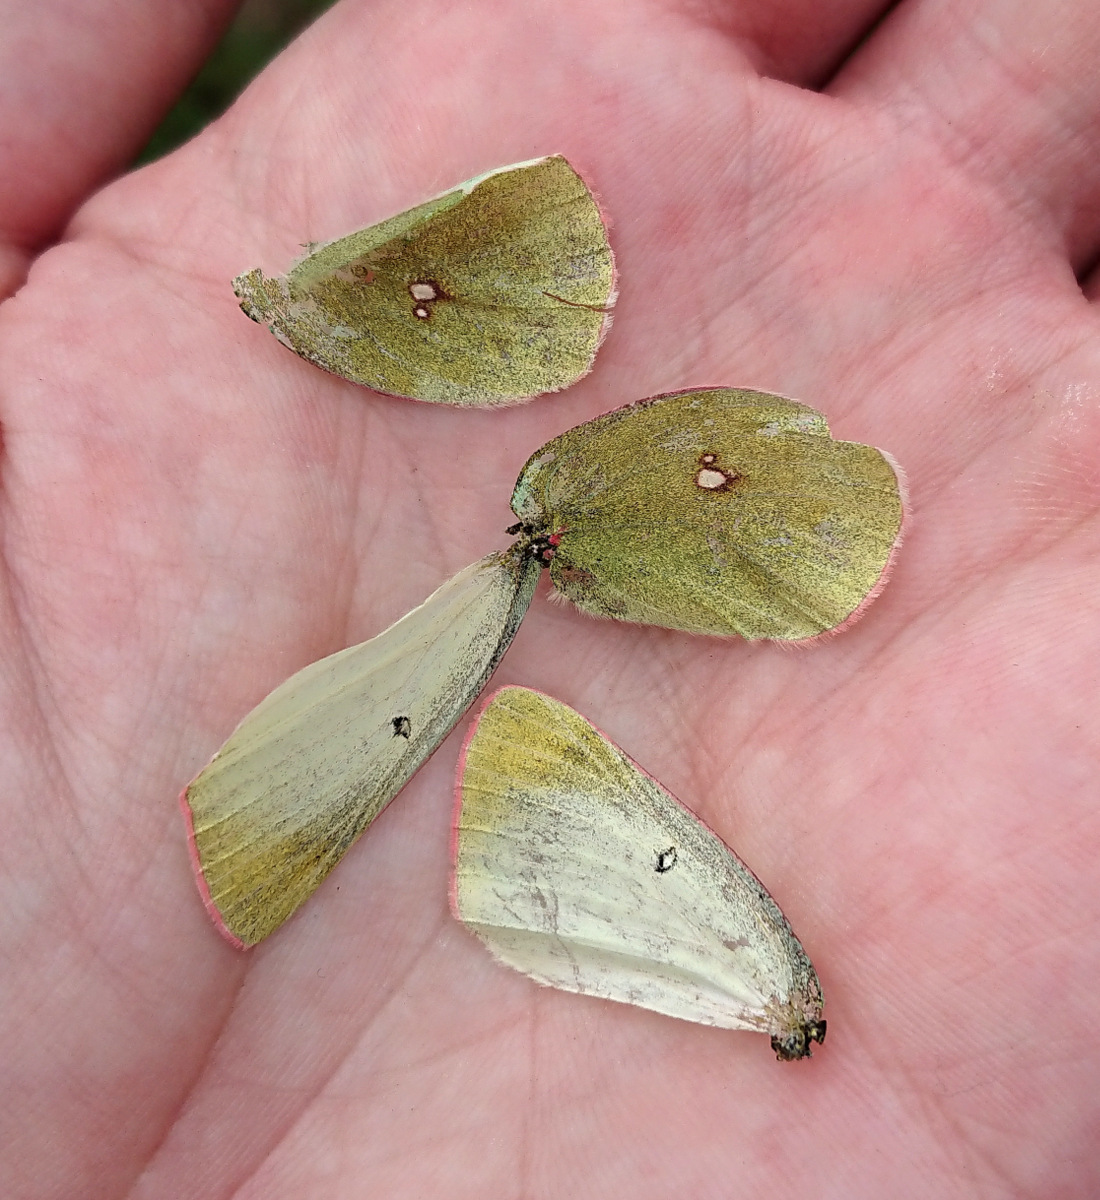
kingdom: Animalia
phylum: Arthropoda
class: Insecta
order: Lepidoptera
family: Pieridae
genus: Colias
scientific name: Colias scudderi
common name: Willow sulphur
